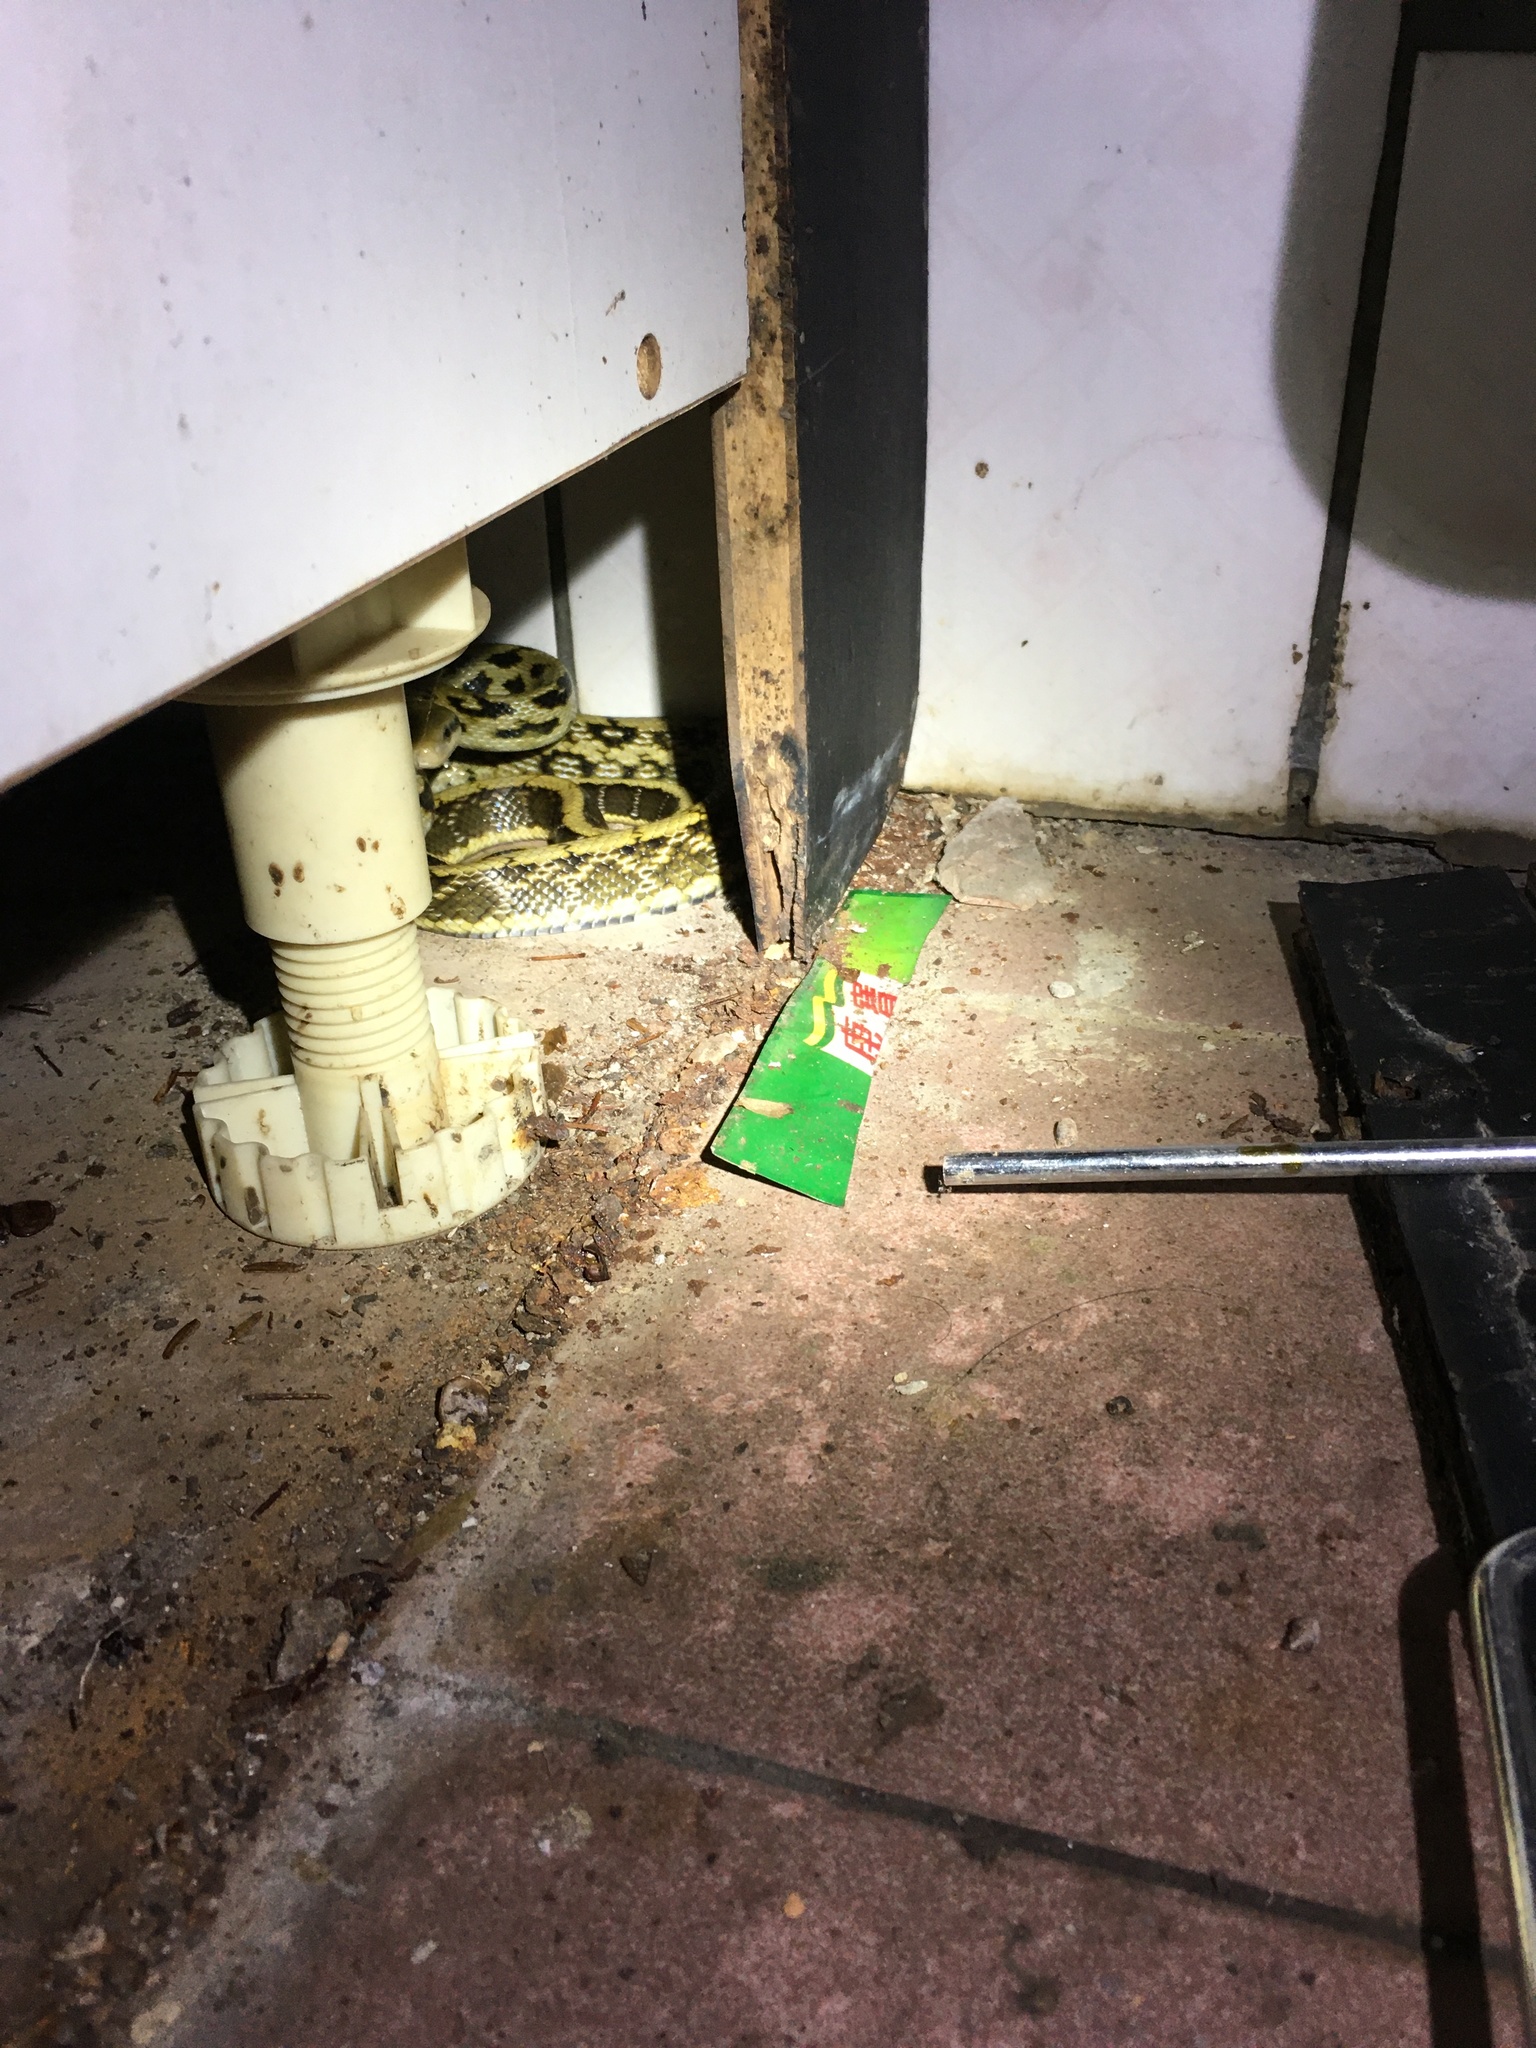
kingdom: Animalia
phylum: Chordata
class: Squamata
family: Colubridae
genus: Elaphe
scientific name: Elaphe taeniura
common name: Beauty snake
